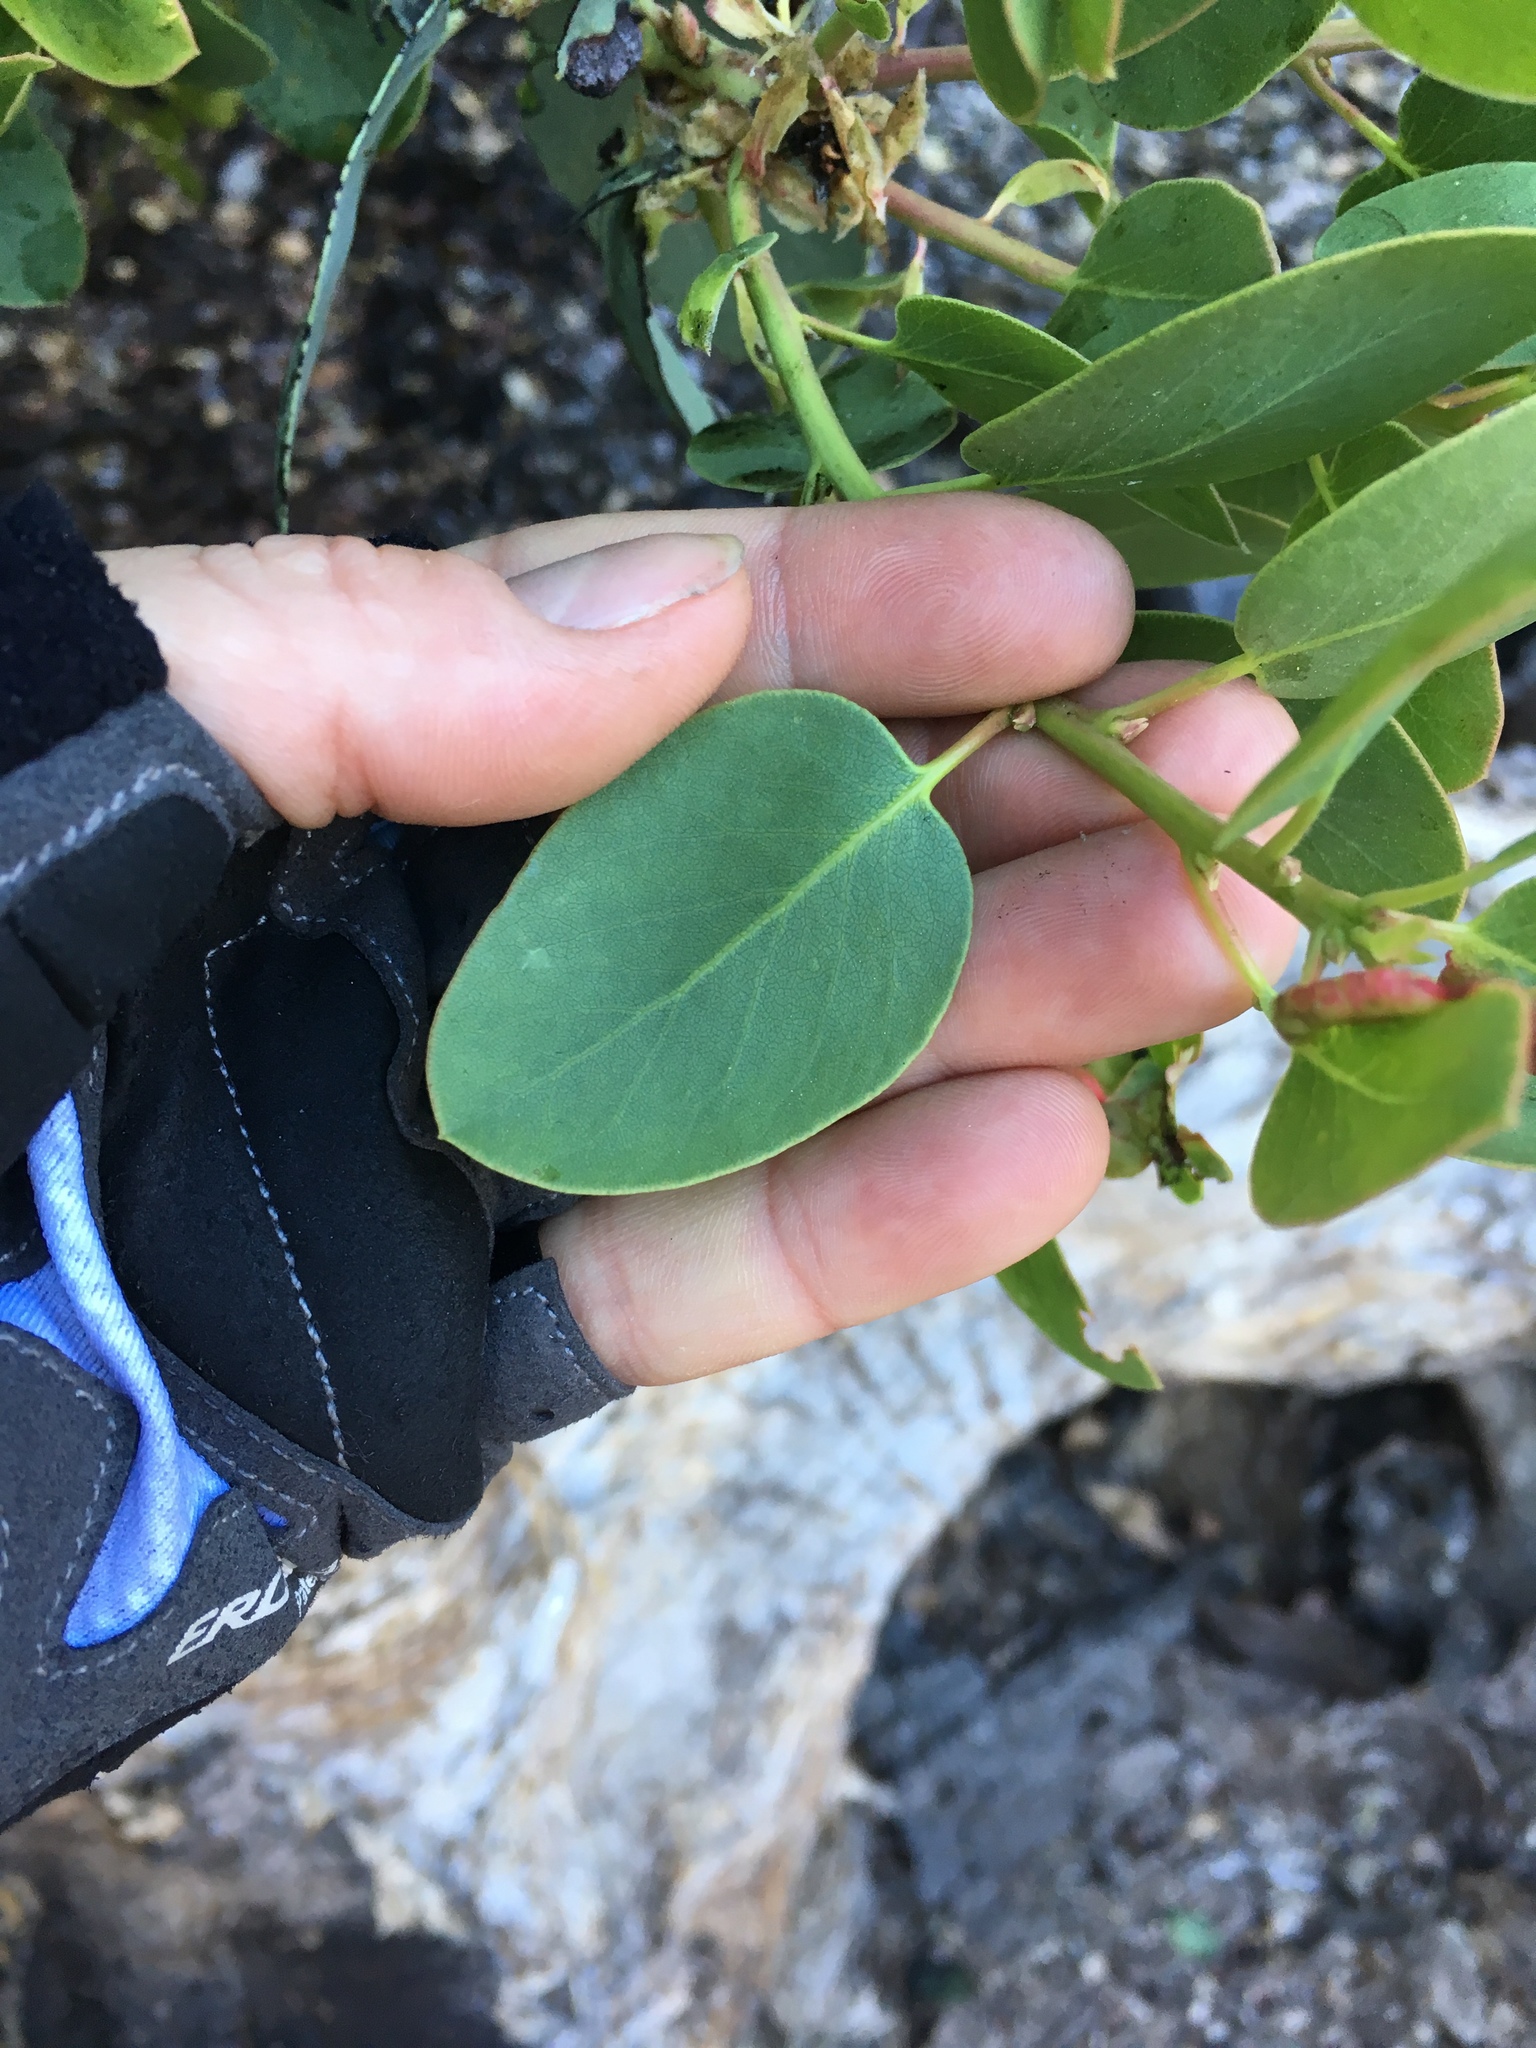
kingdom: Plantae
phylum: Tracheophyta
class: Magnoliopsida
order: Ericales
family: Ericaceae
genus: Arctostaphylos
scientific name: Arctostaphylos glauca
